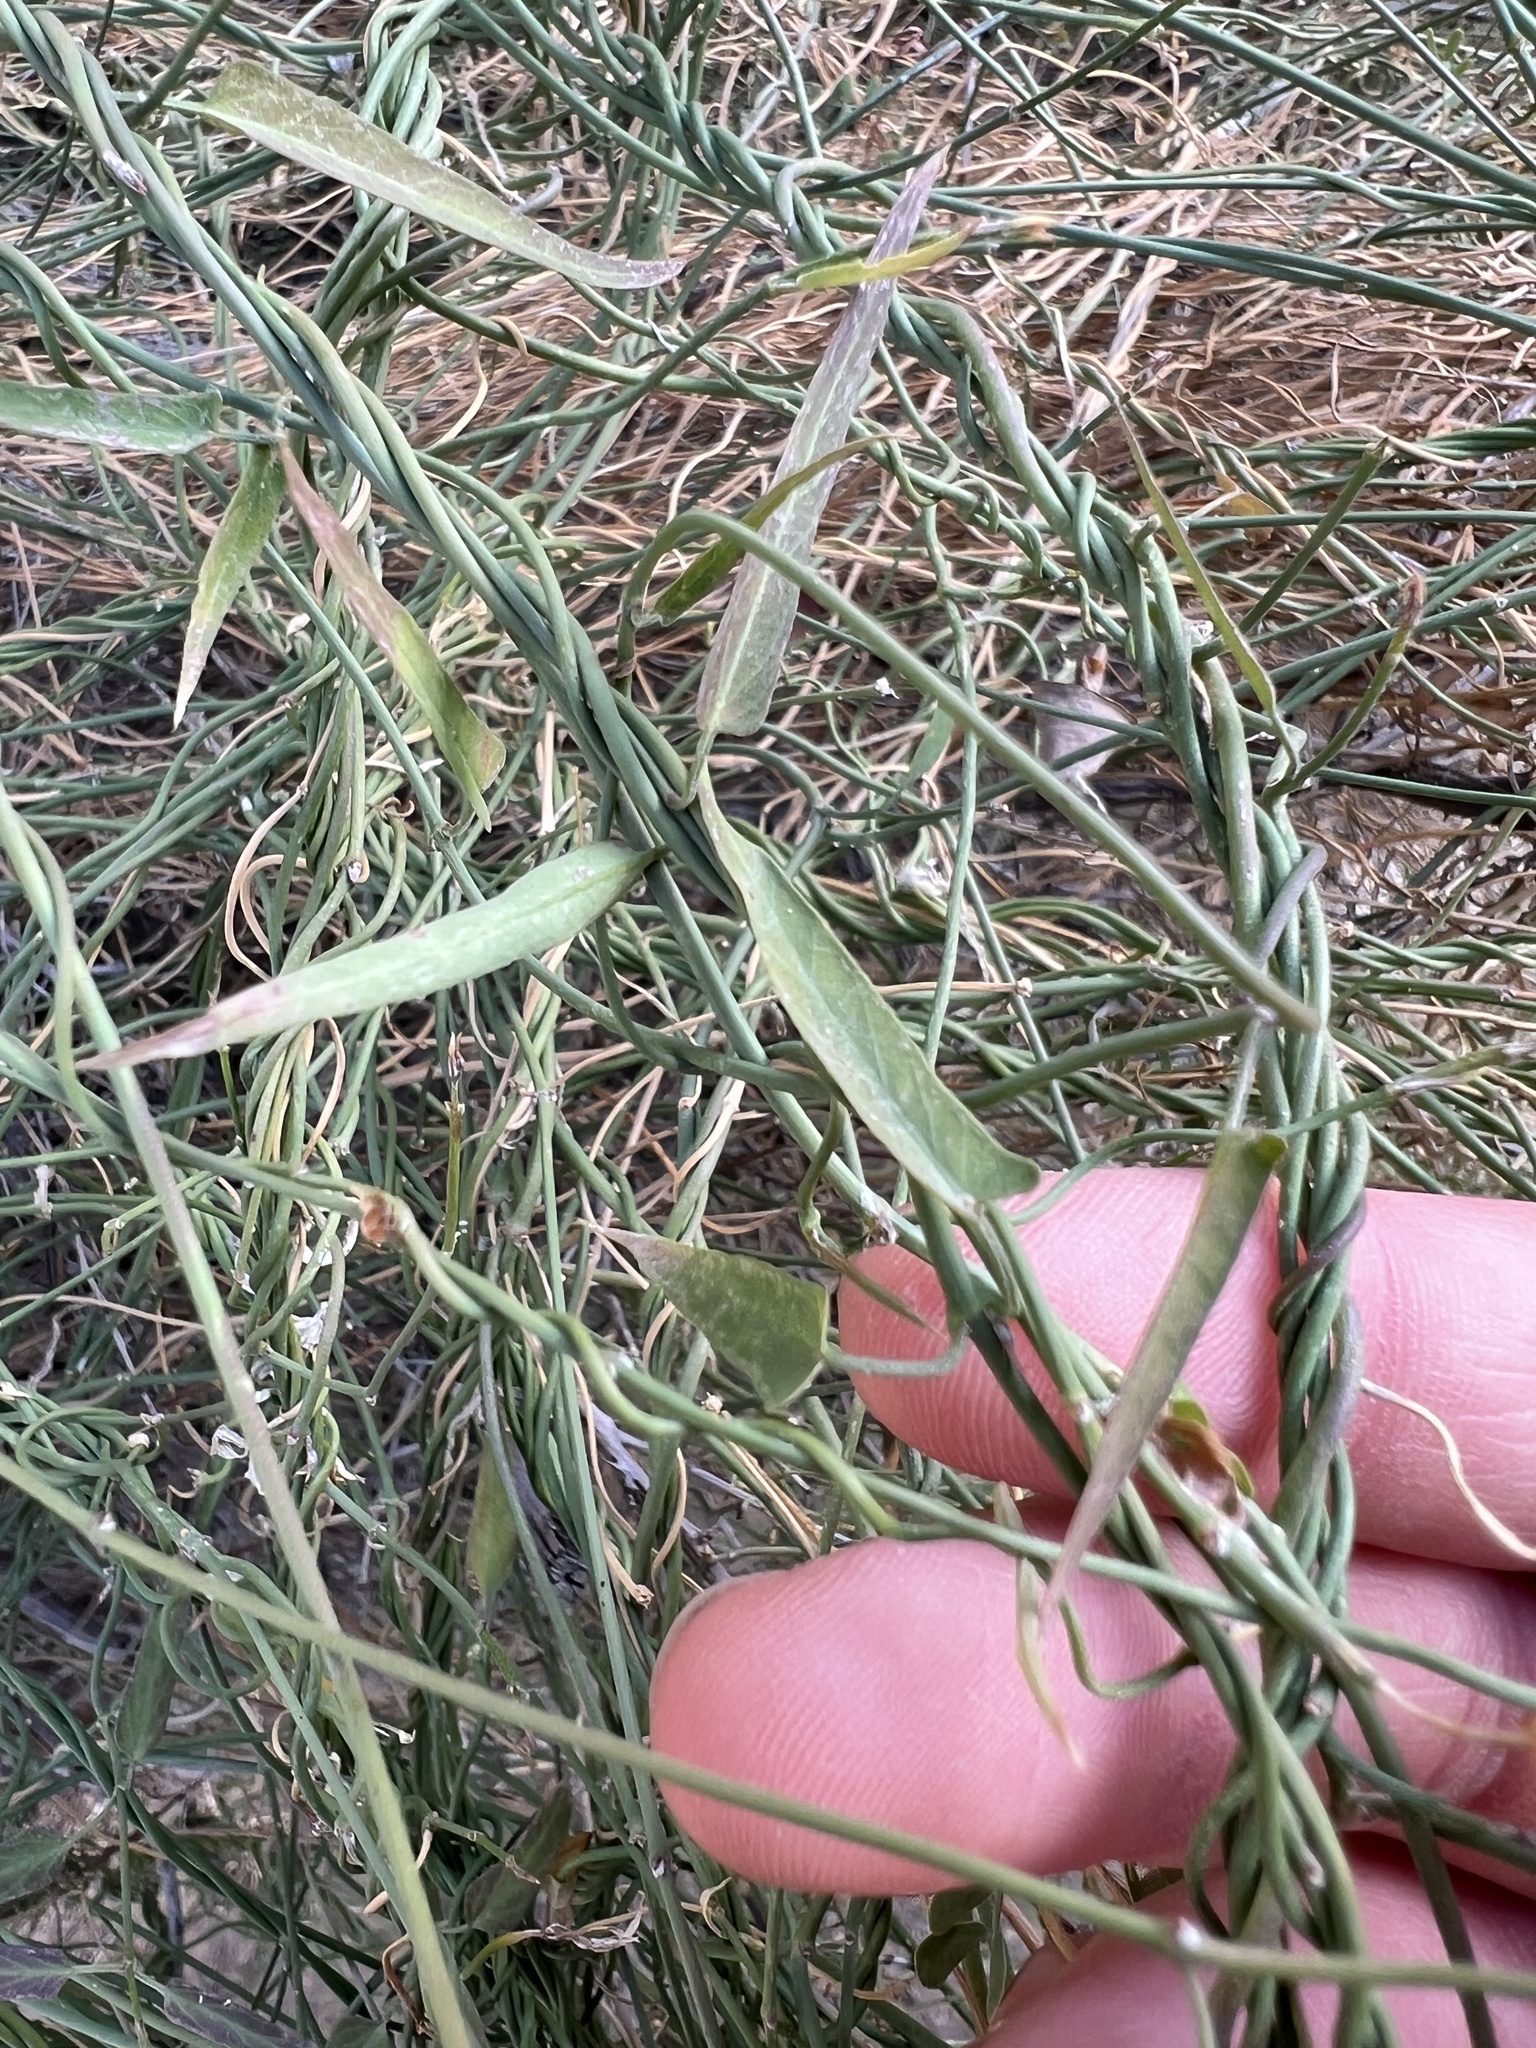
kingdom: Plantae
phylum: Tracheophyta
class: Magnoliopsida
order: Gentianales
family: Apocynaceae
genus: Funastrum
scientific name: Funastrum heterophyllum
